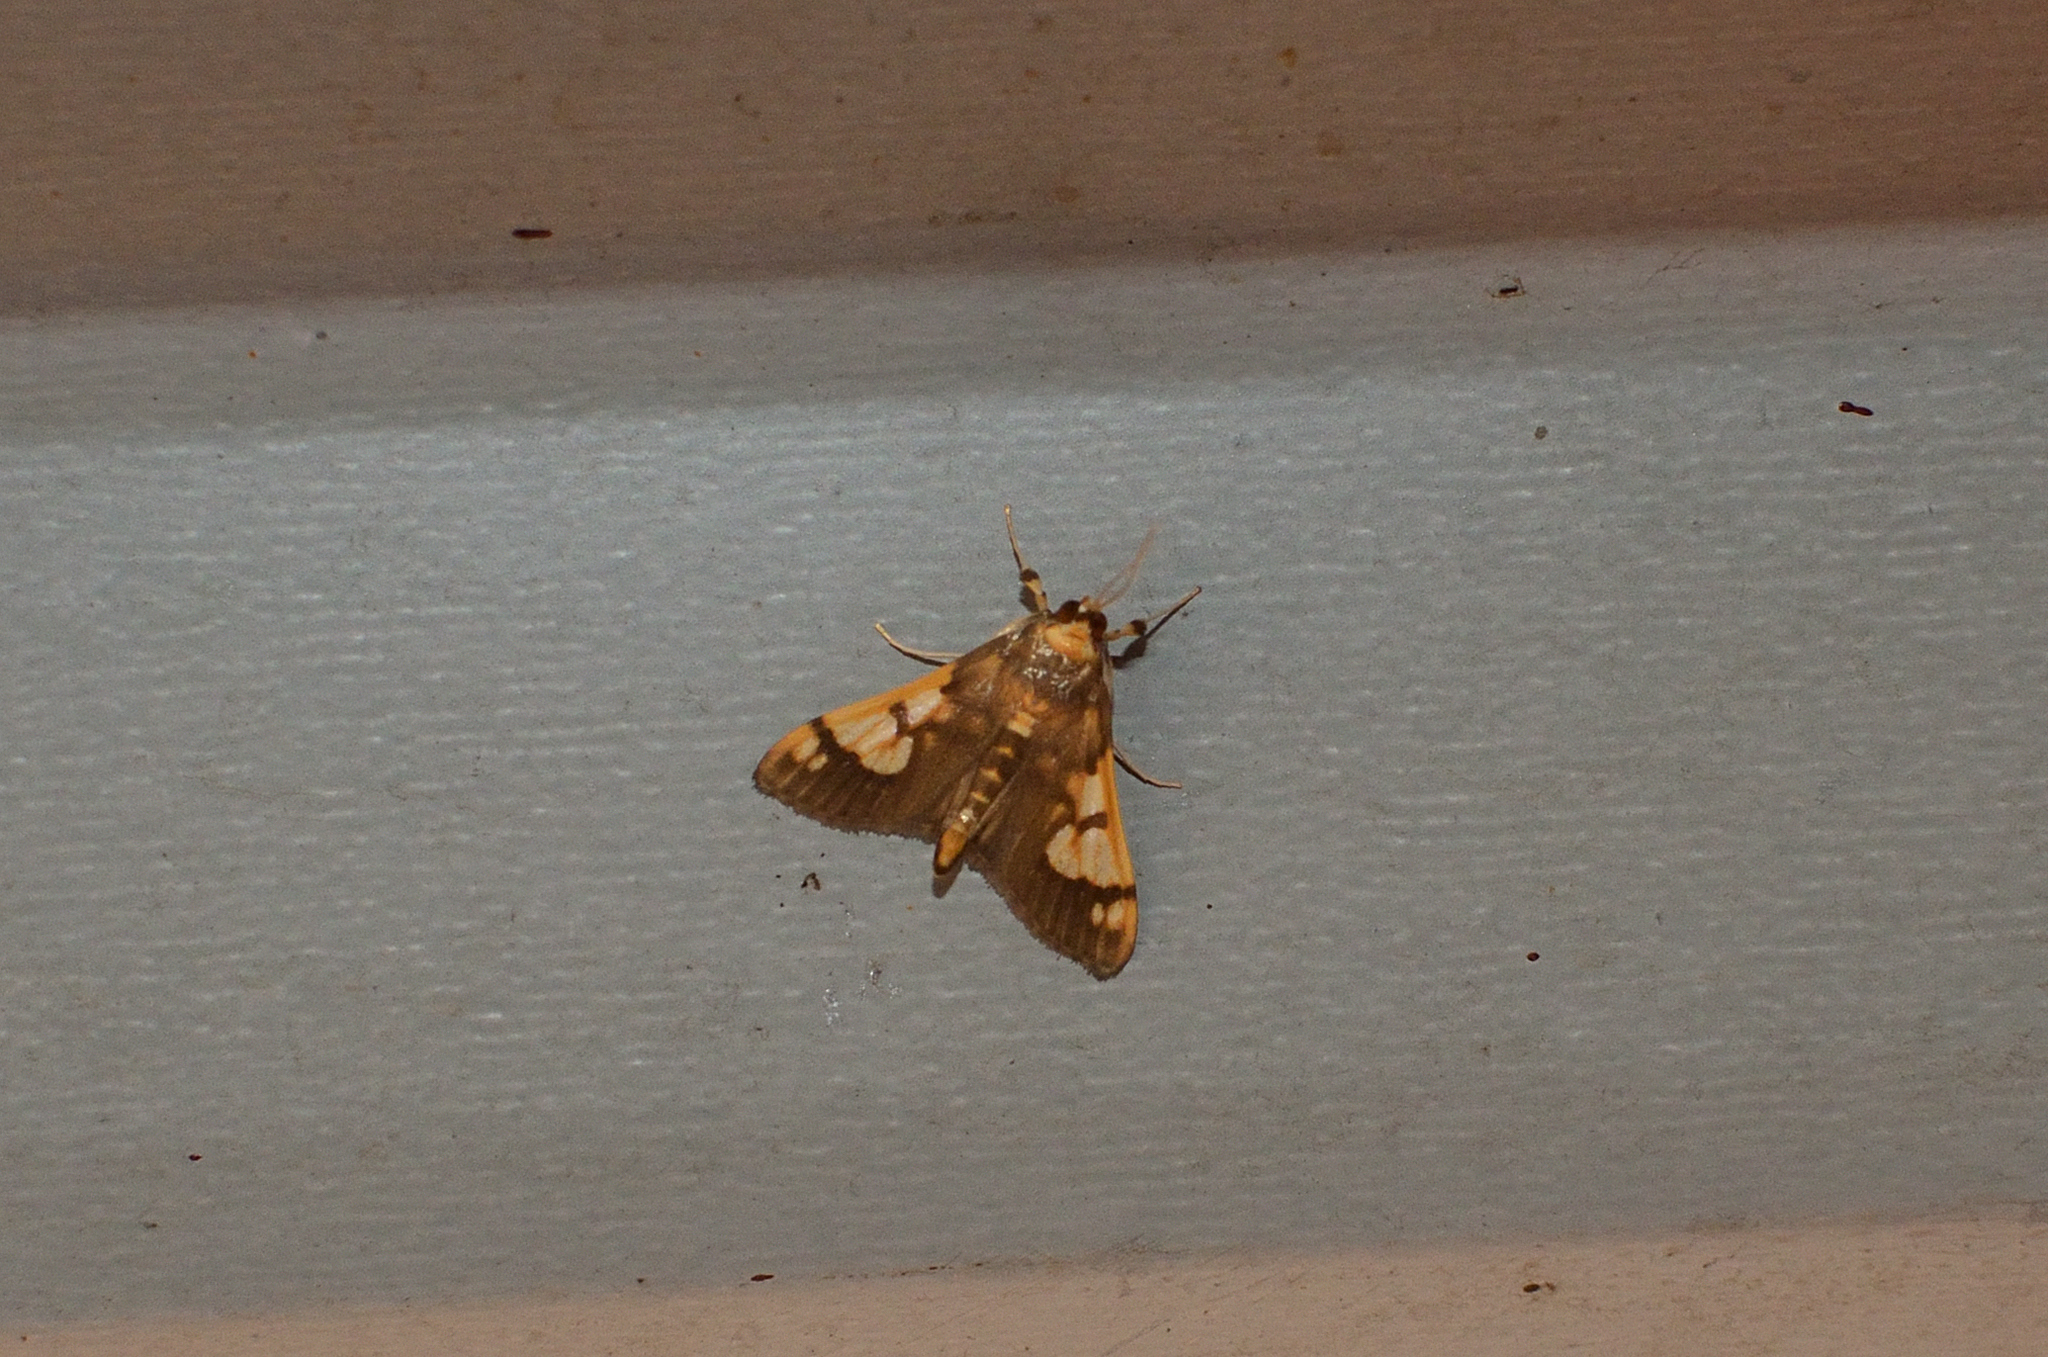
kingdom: Animalia
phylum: Arthropoda
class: Insecta
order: Lepidoptera
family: Crambidae
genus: Ulopeza
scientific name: Ulopeza idyalis
